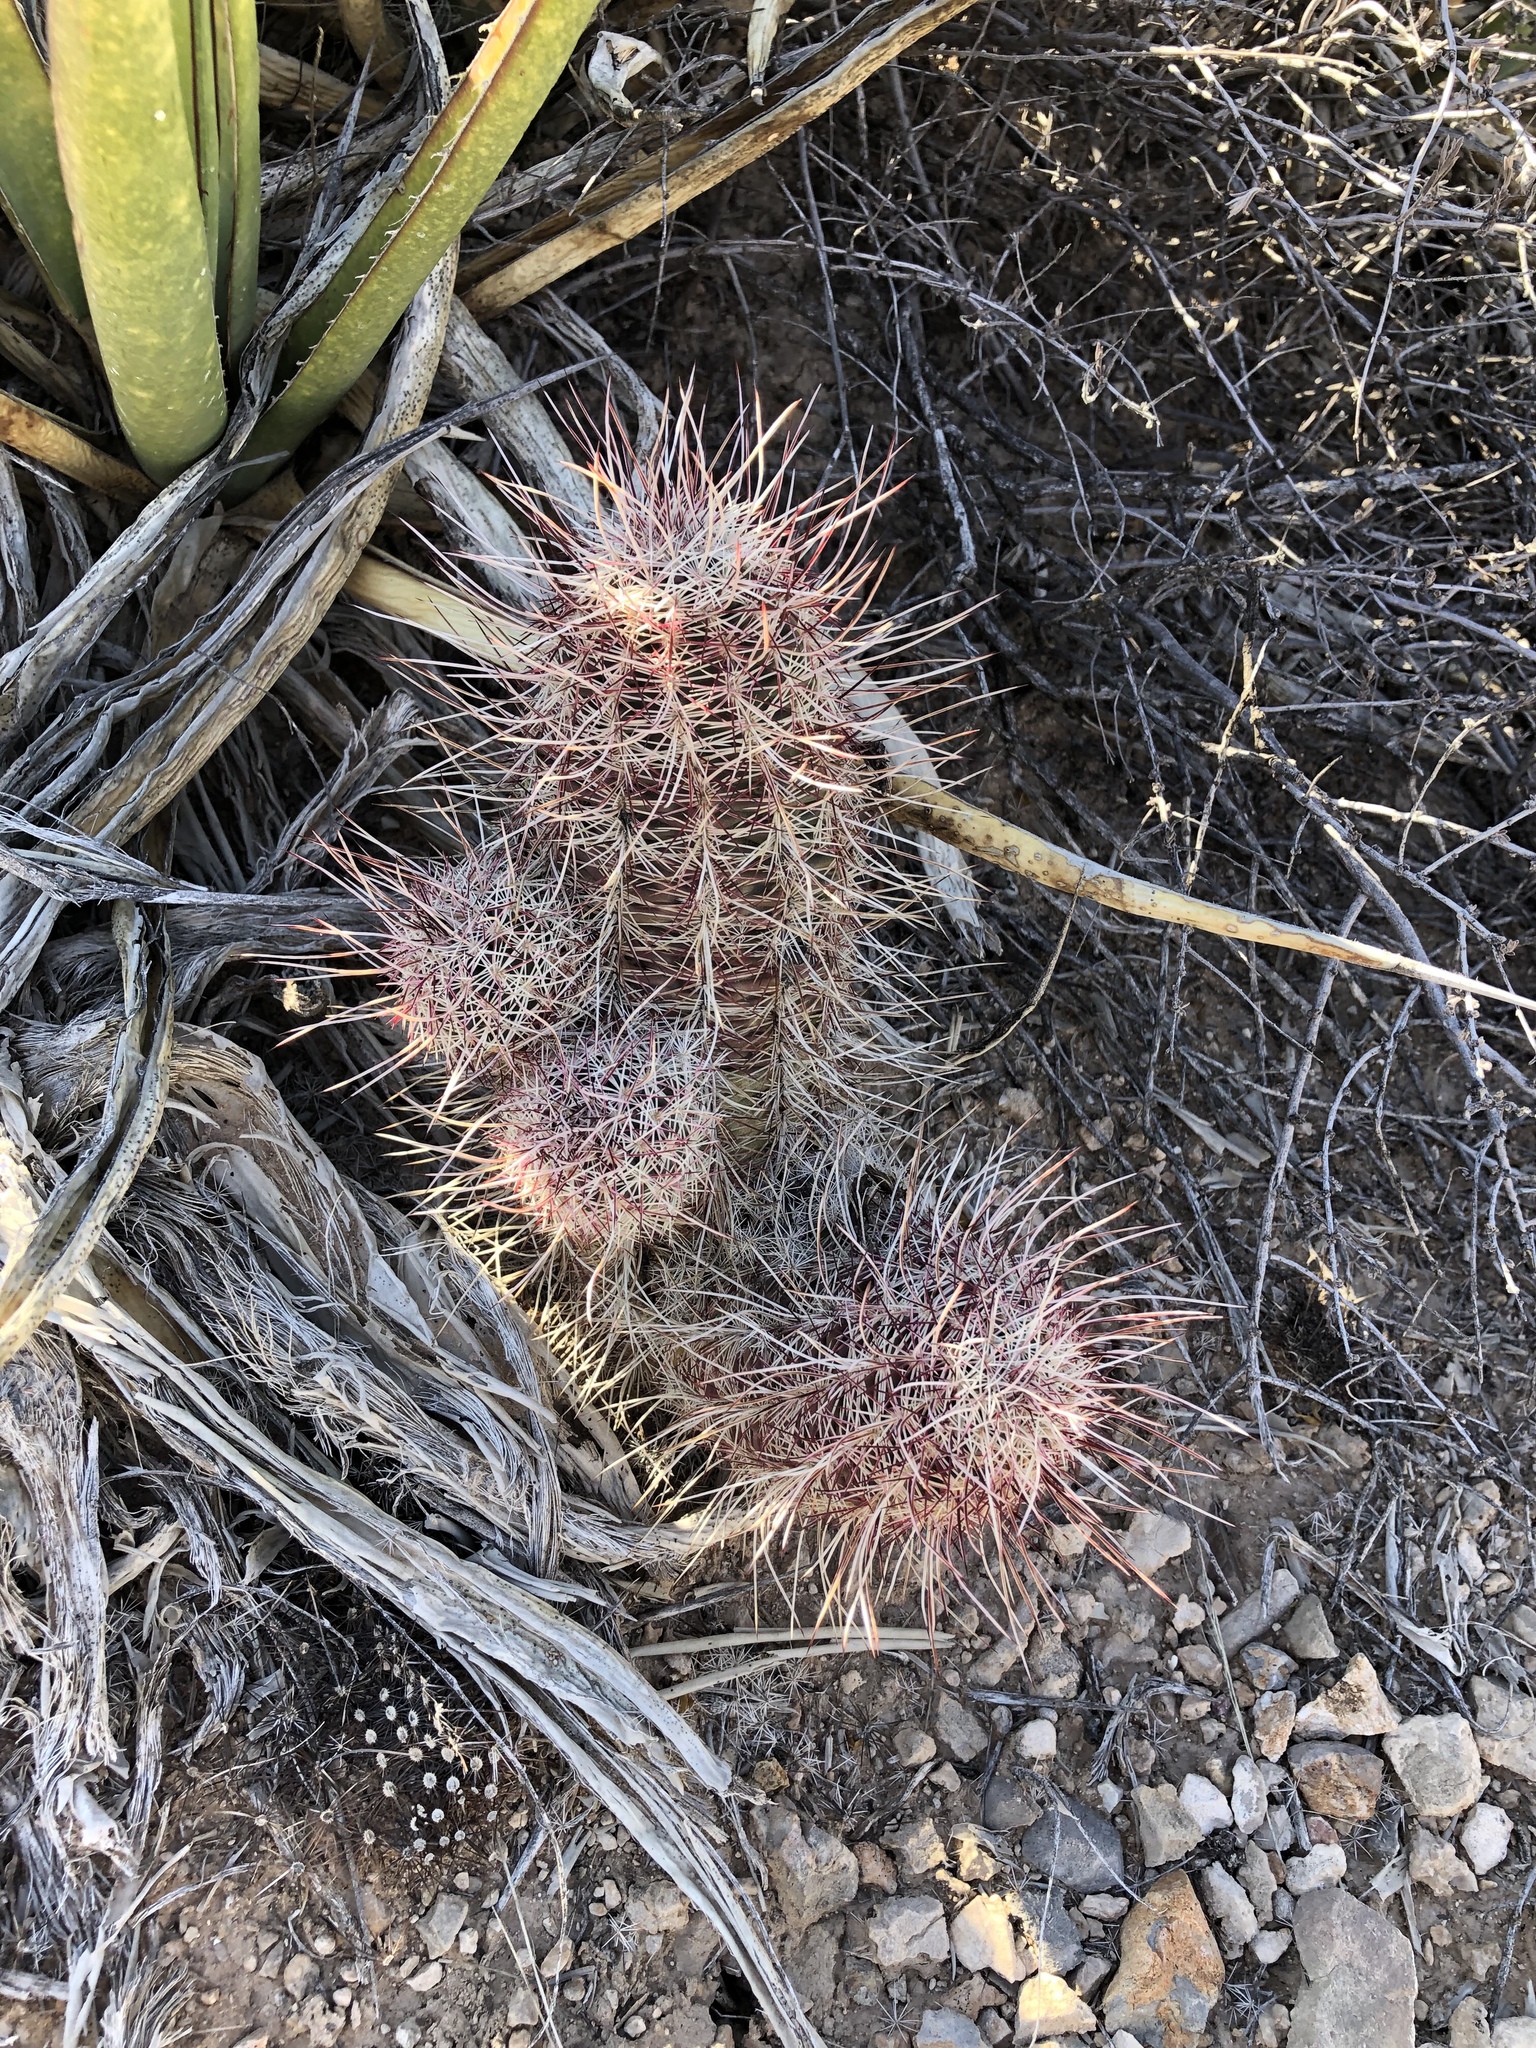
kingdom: Plantae
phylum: Tracheophyta
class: Magnoliopsida
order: Caryophyllales
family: Cactaceae
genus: Echinocereus
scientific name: Echinocereus viridiflorus
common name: Nylon hedgehog cactus
